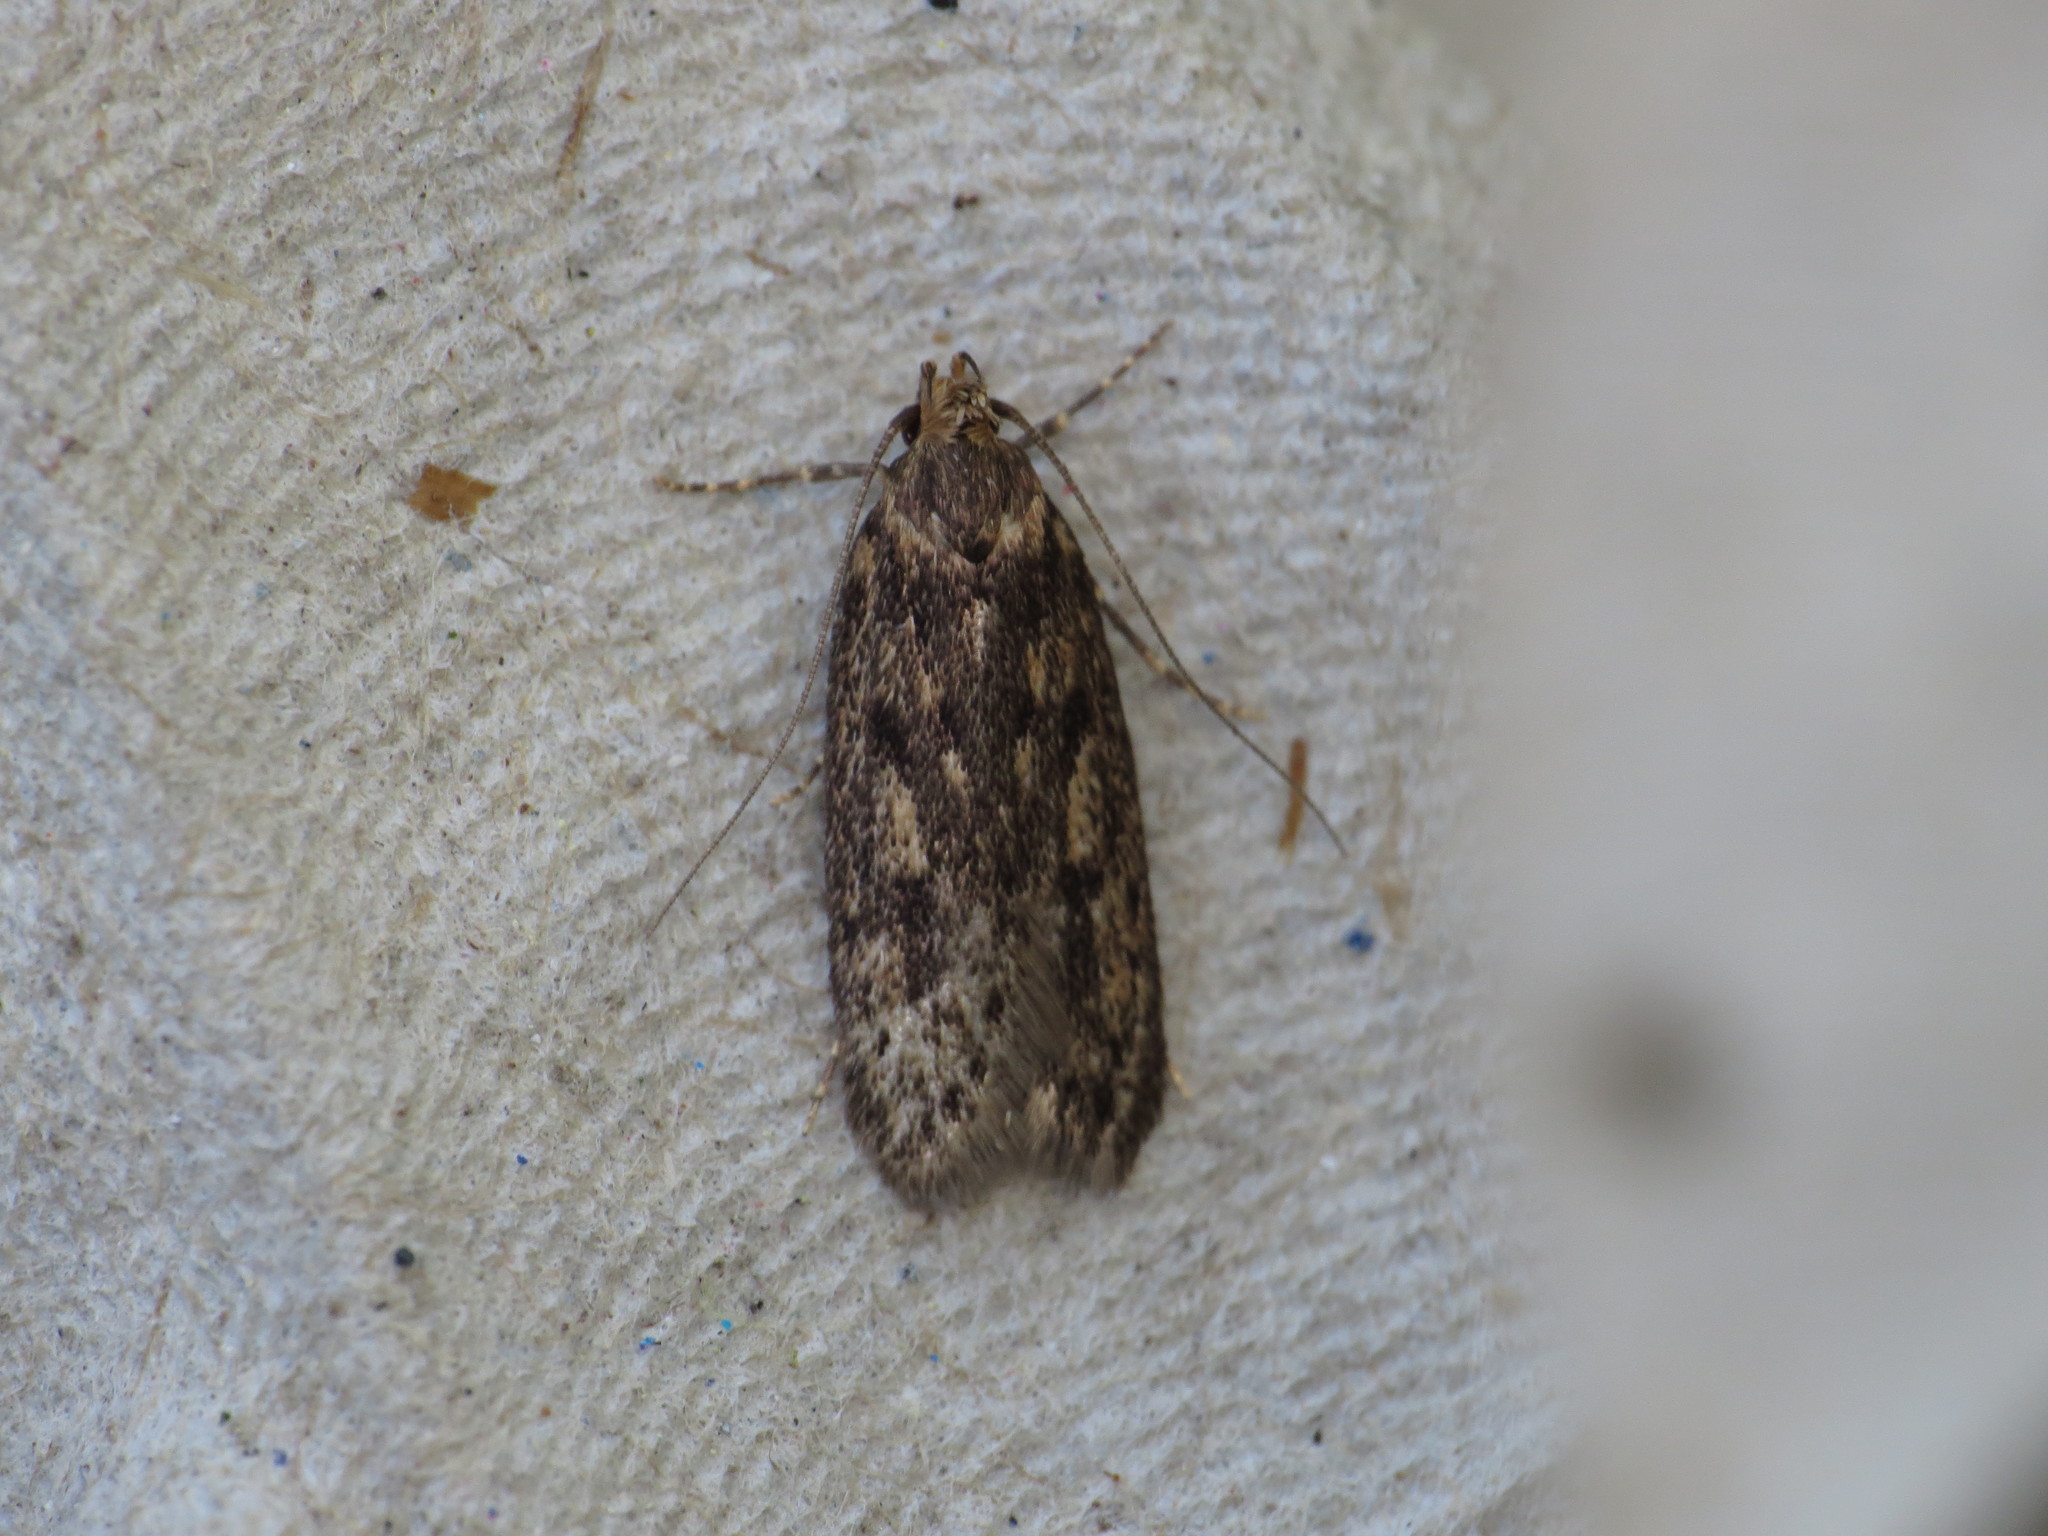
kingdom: Animalia
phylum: Arthropoda
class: Insecta
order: Lepidoptera
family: Oecophoridae
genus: Hofmannophila
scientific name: Hofmannophila pseudospretella
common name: Brown house moth
